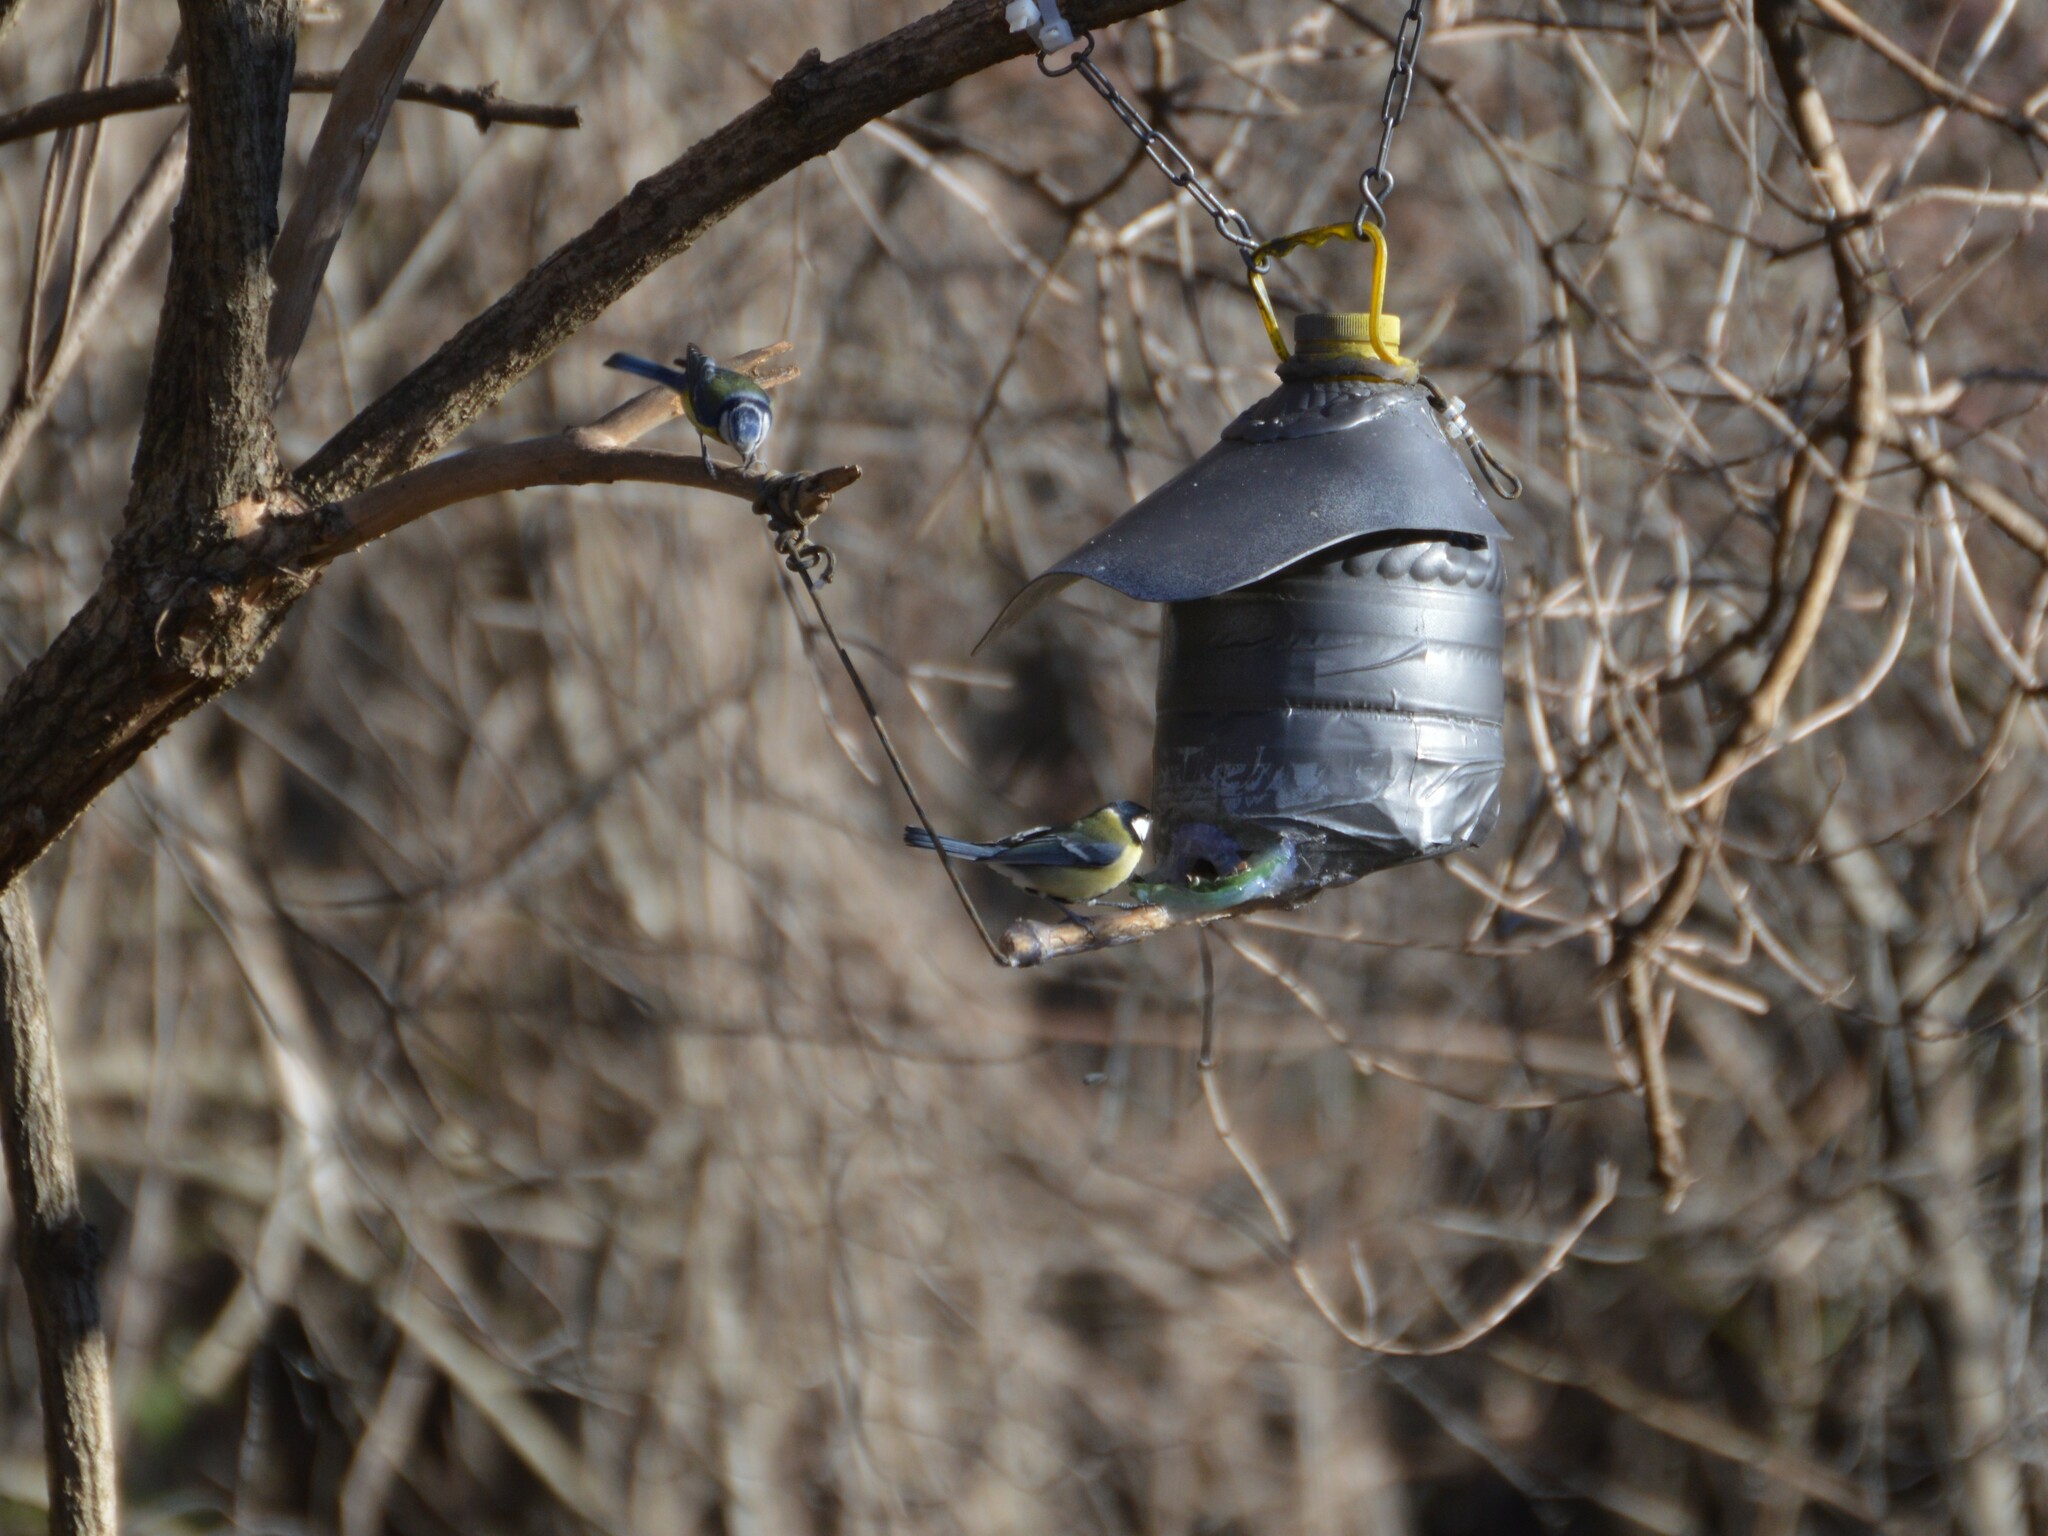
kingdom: Animalia
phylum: Chordata
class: Aves
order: Passeriformes
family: Paridae
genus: Parus
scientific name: Parus major
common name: Great tit
